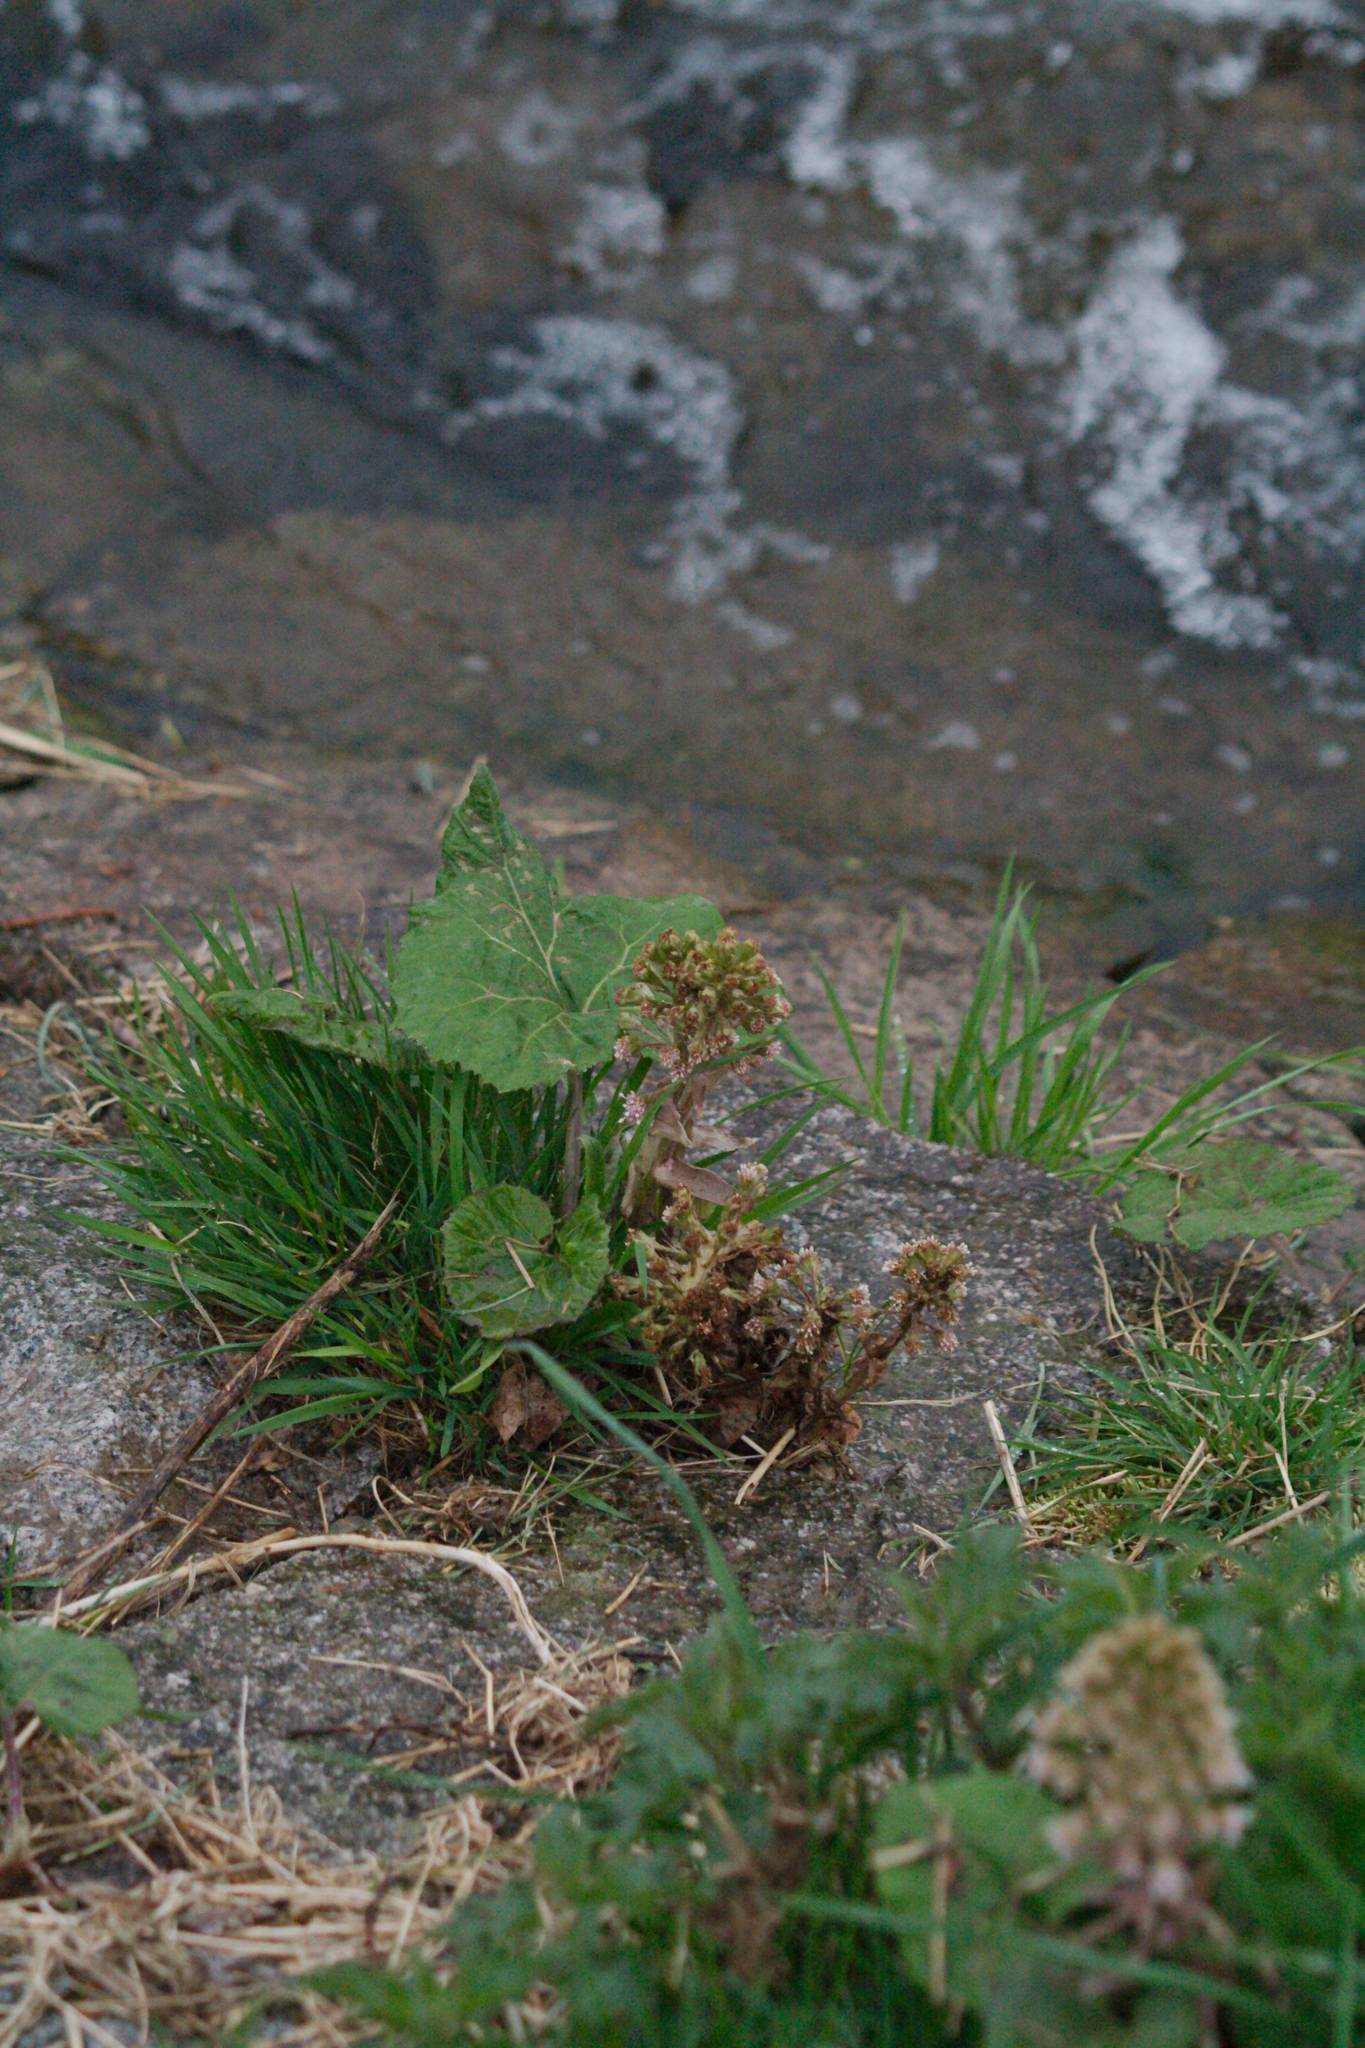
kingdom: Plantae
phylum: Tracheophyta
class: Magnoliopsida
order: Asterales
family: Asteraceae
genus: Petasites
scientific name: Petasites hybridus
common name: Butterbur
